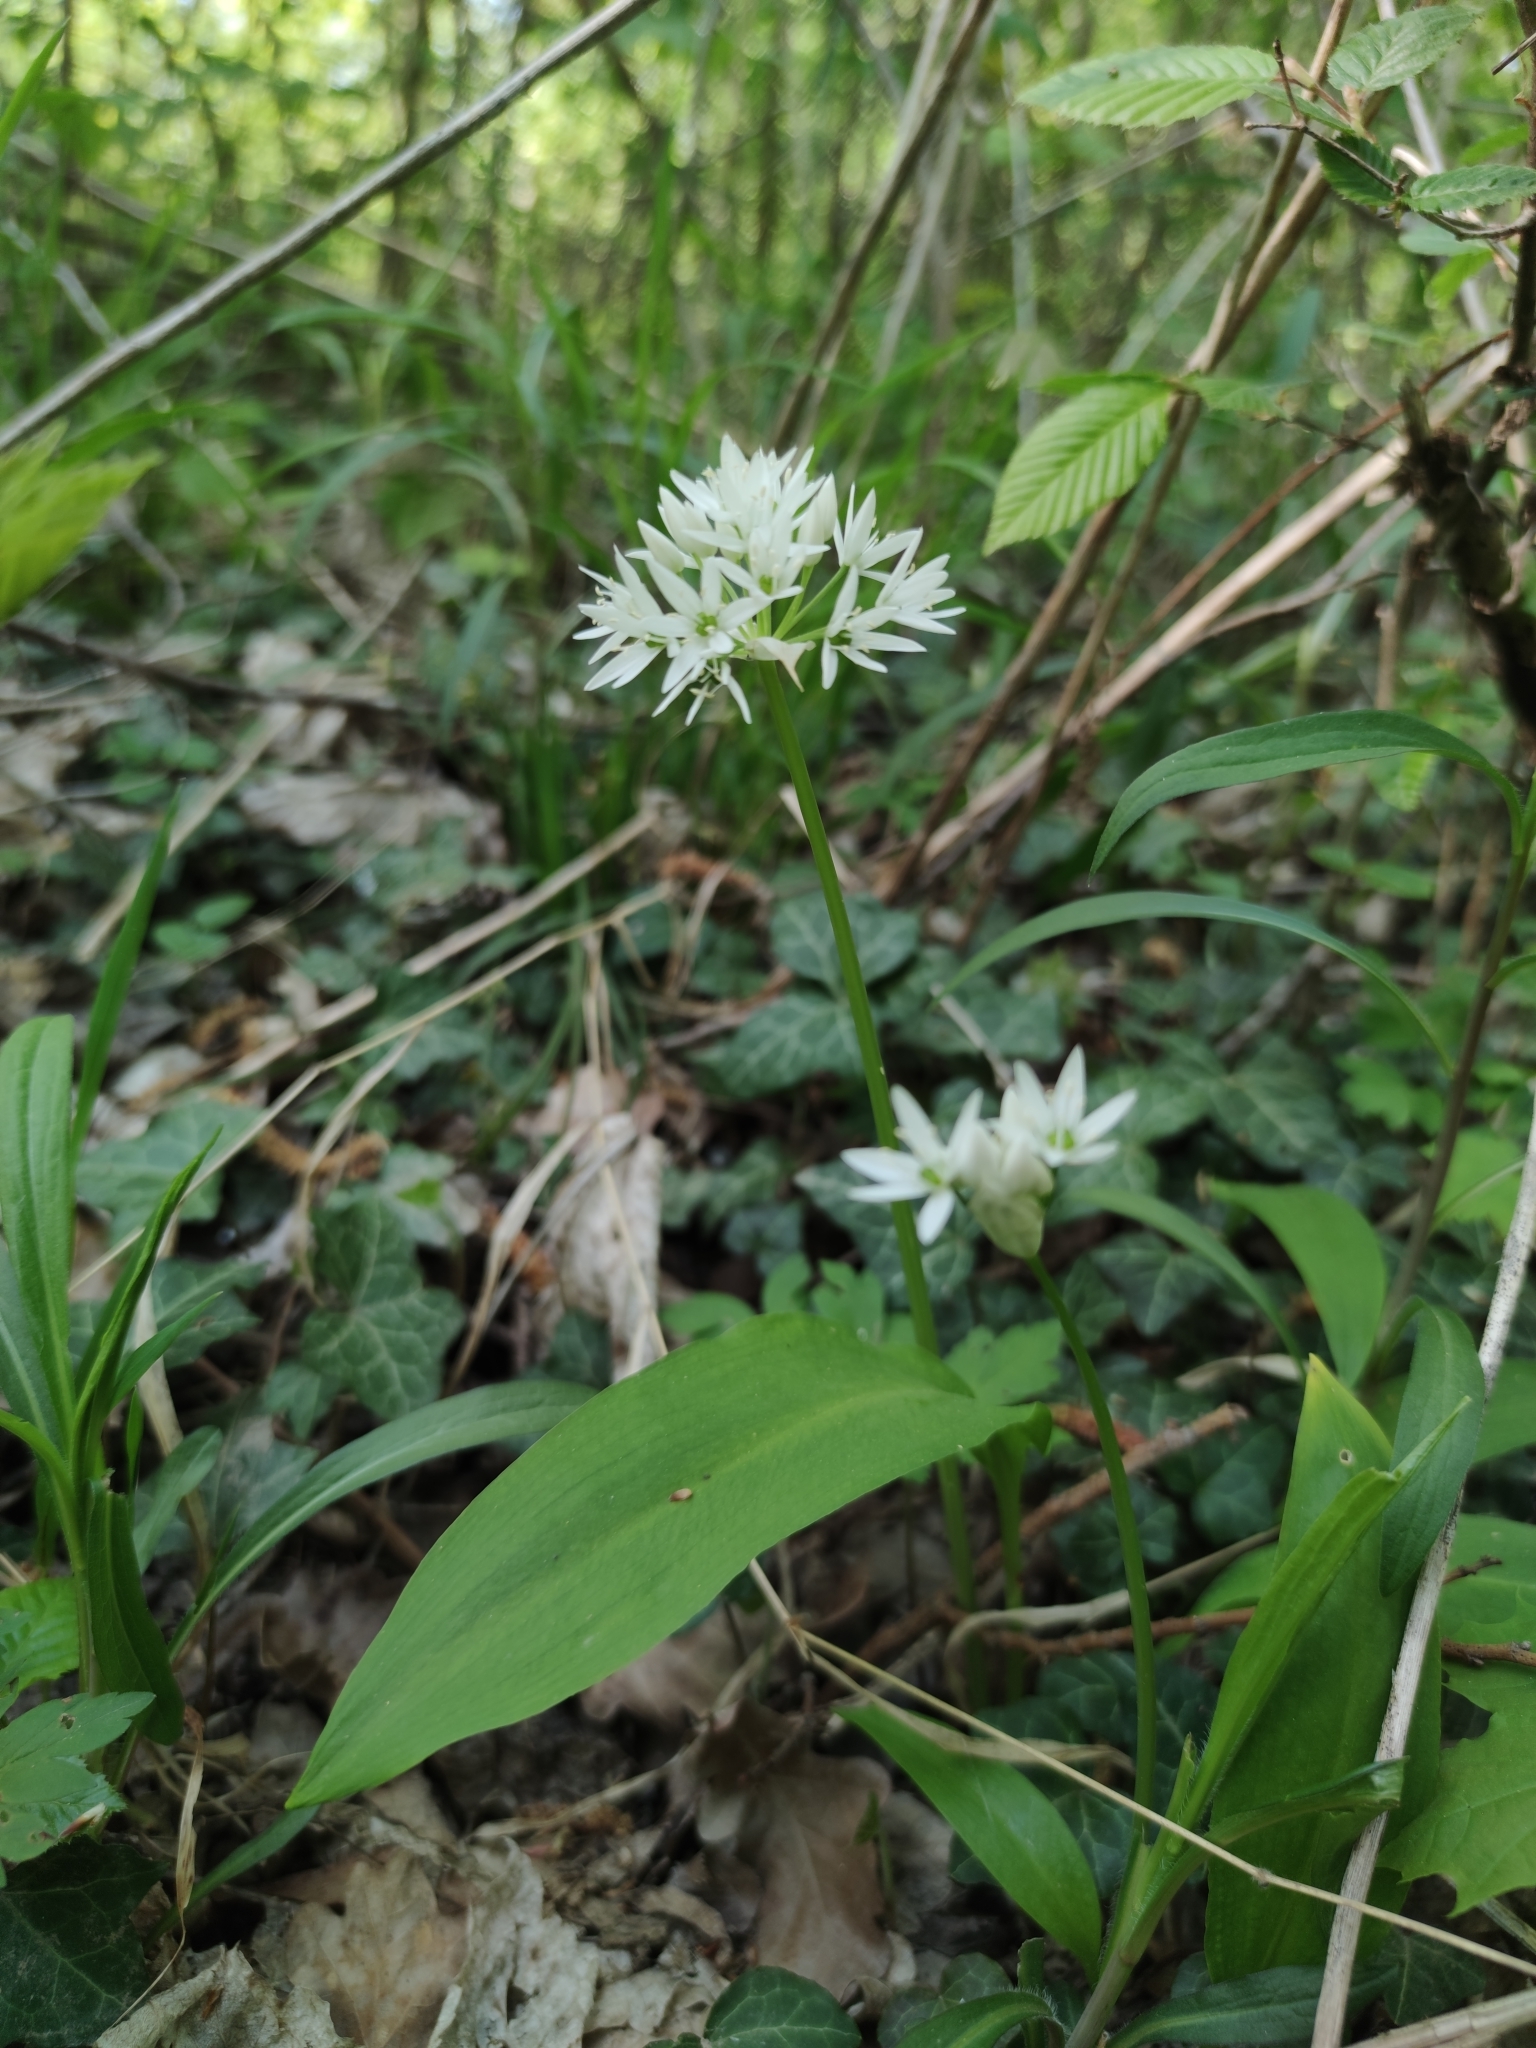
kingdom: Plantae
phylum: Tracheophyta
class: Liliopsida
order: Asparagales
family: Amaryllidaceae
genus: Allium
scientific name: Allium ursinum
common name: Ramsons
